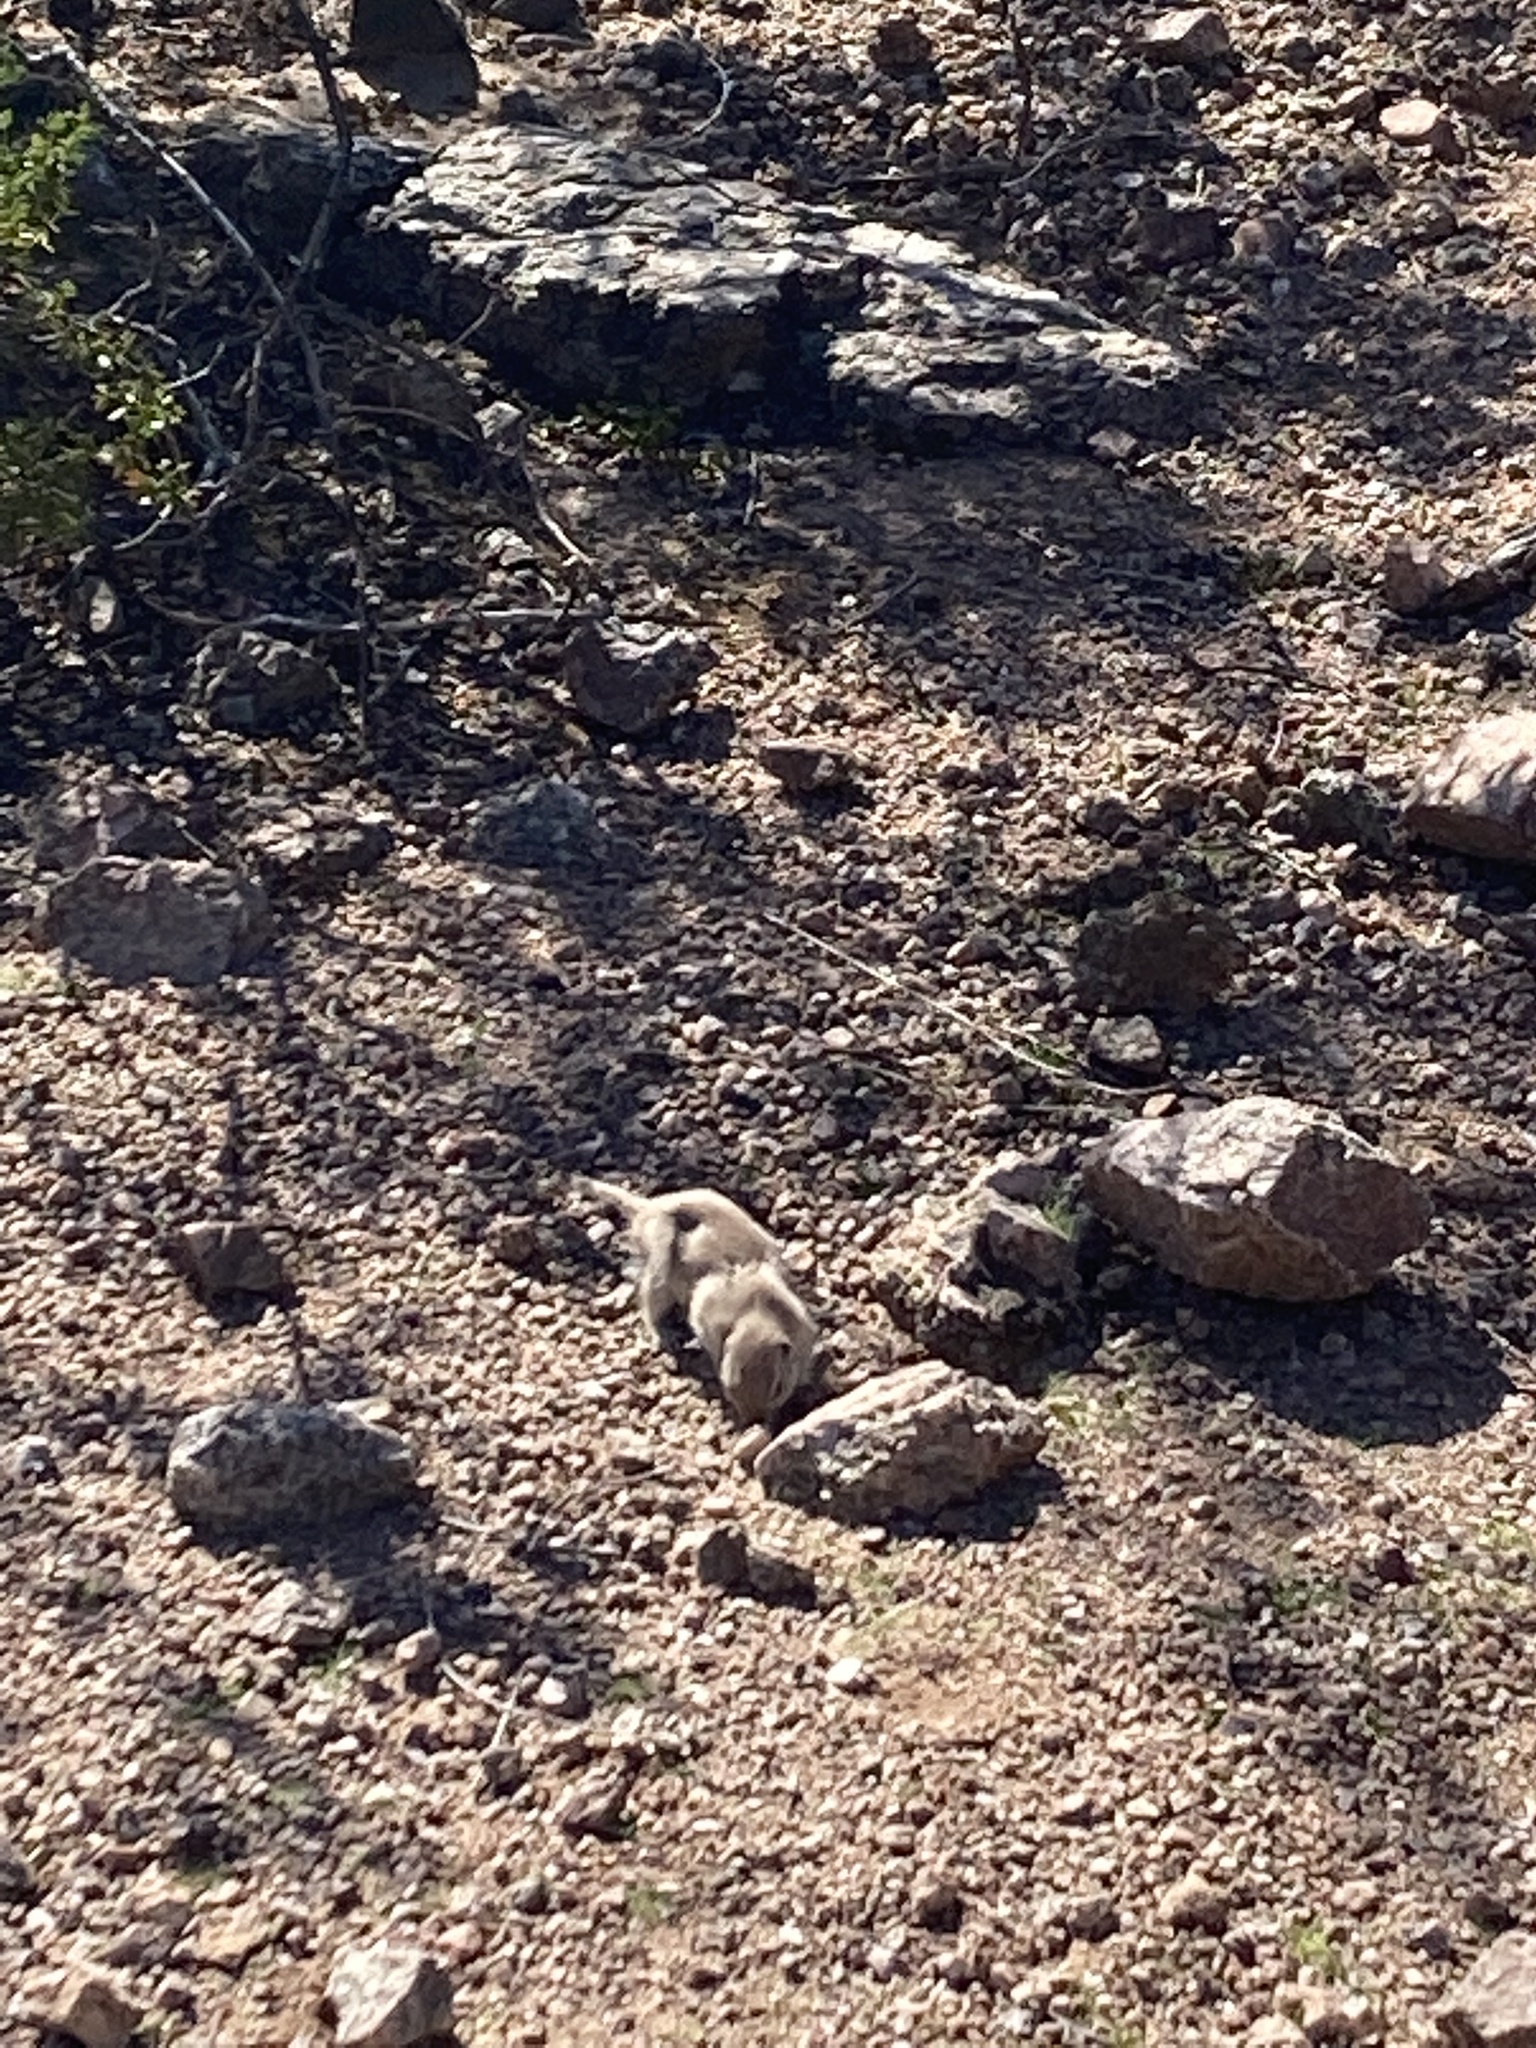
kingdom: Animalia
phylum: Chordata
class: Mammalia
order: Rodentia
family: Sciuridae
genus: Xerospermophilus
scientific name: Xerospermophilus tereticaudus
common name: Round-tailed ground squirrel
